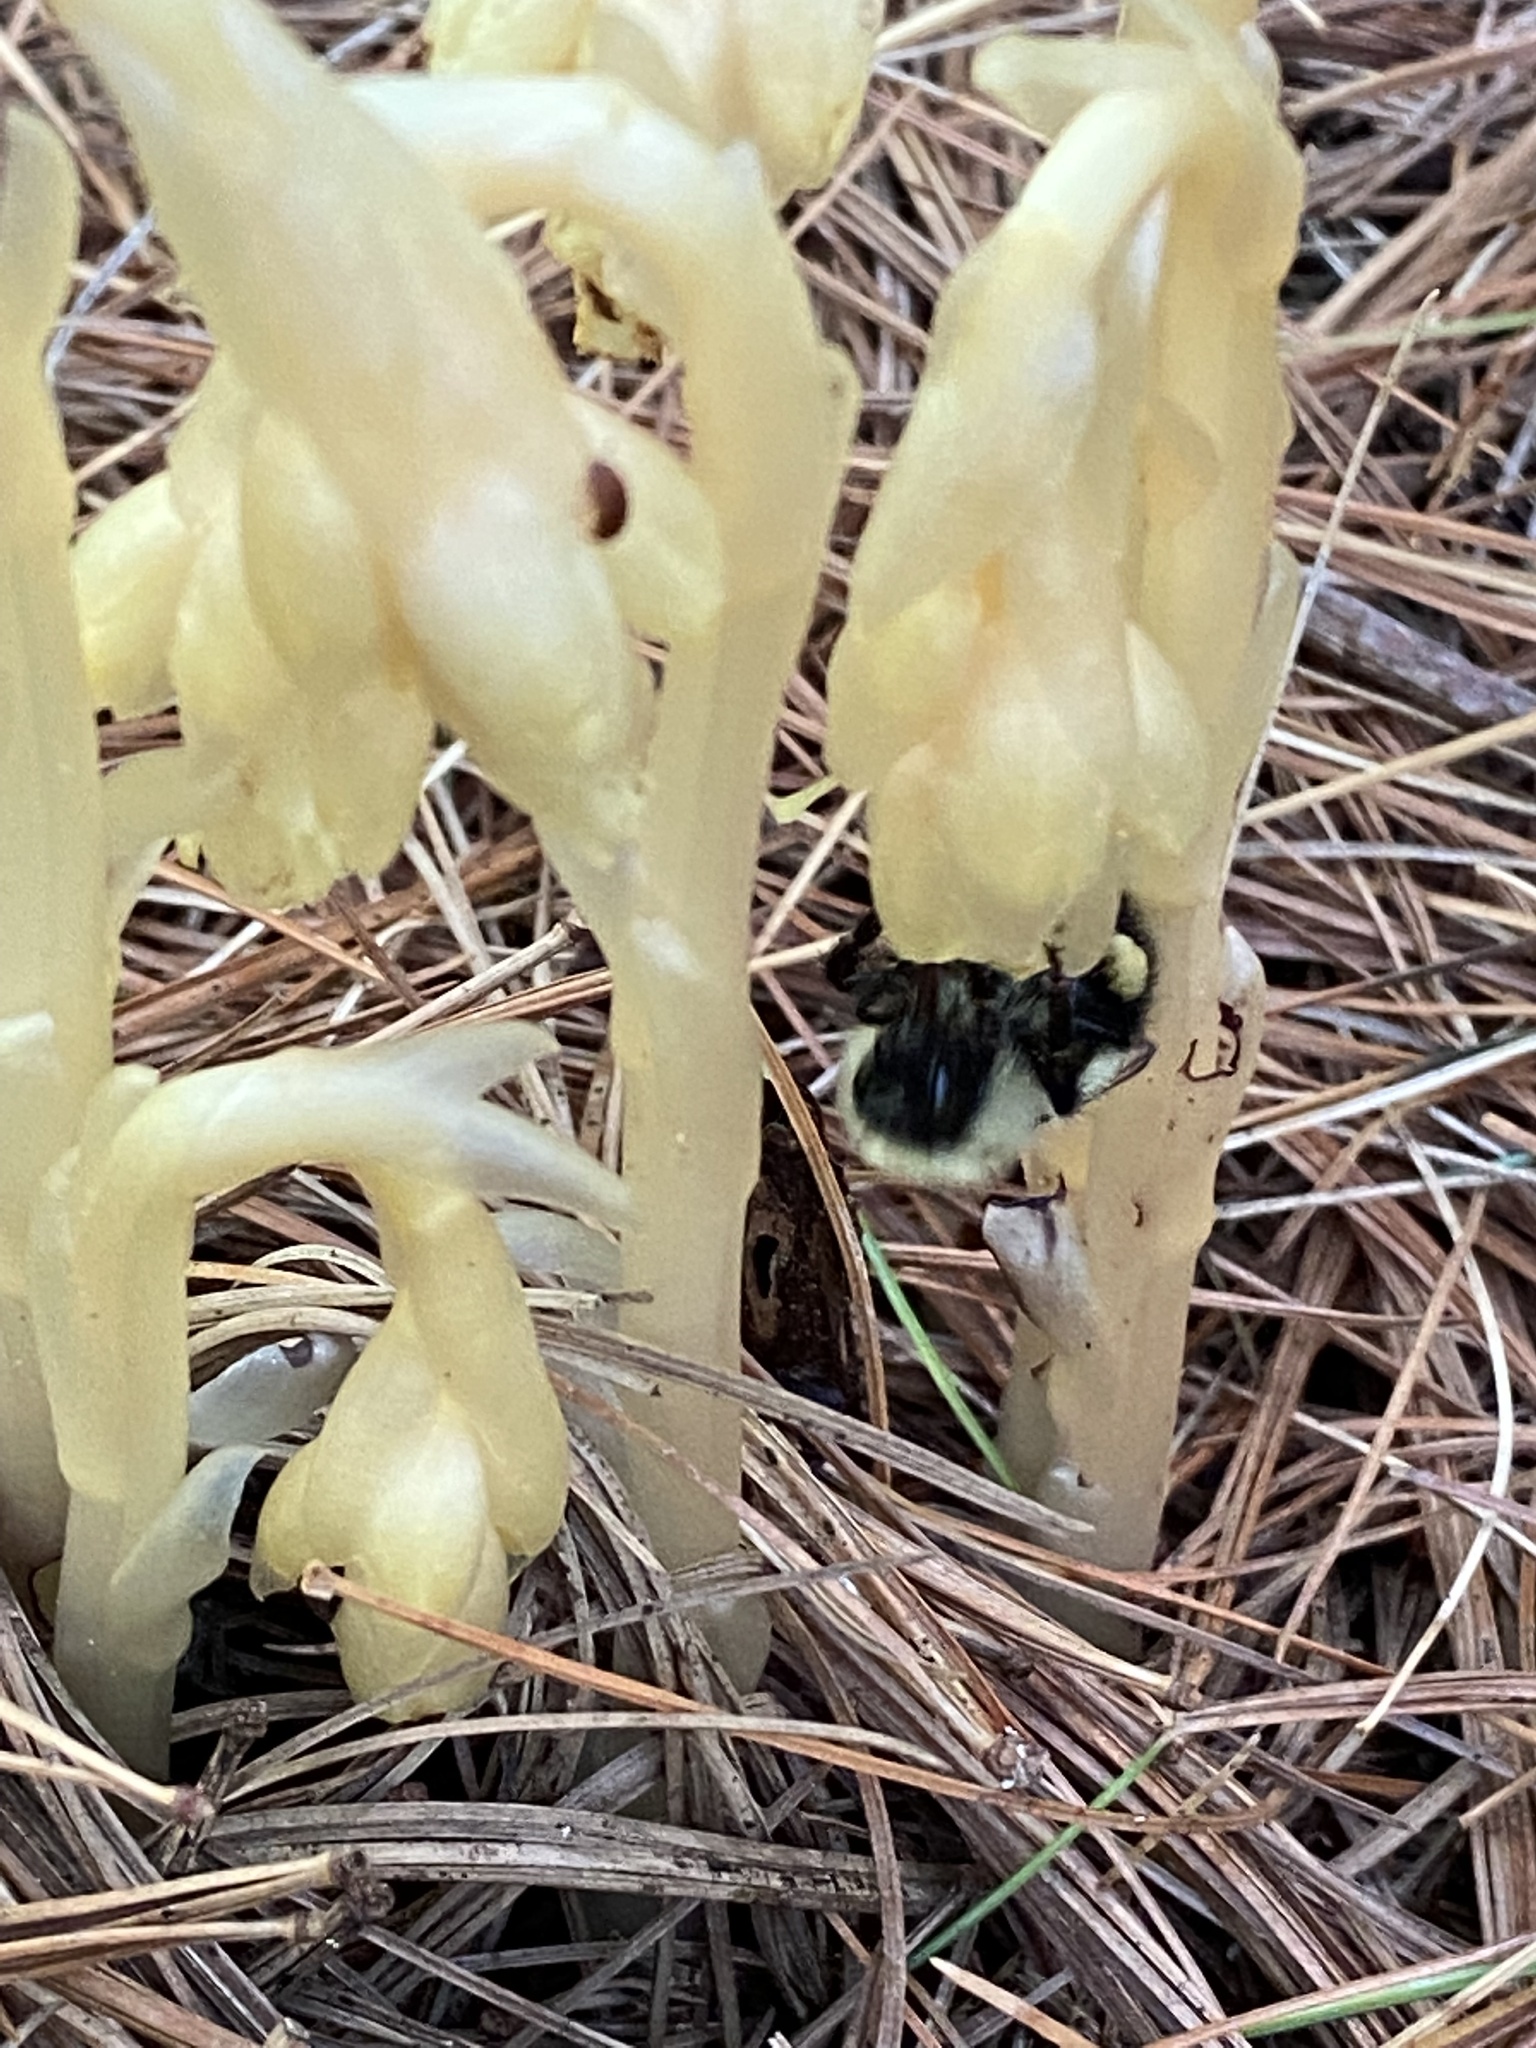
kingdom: Plantae
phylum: Tracheophyta
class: Magnoliopsida
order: Ericales
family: Ericaceae
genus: Hypopitys
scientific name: Hypopitys monotropa
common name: Yellow bird's-nest
